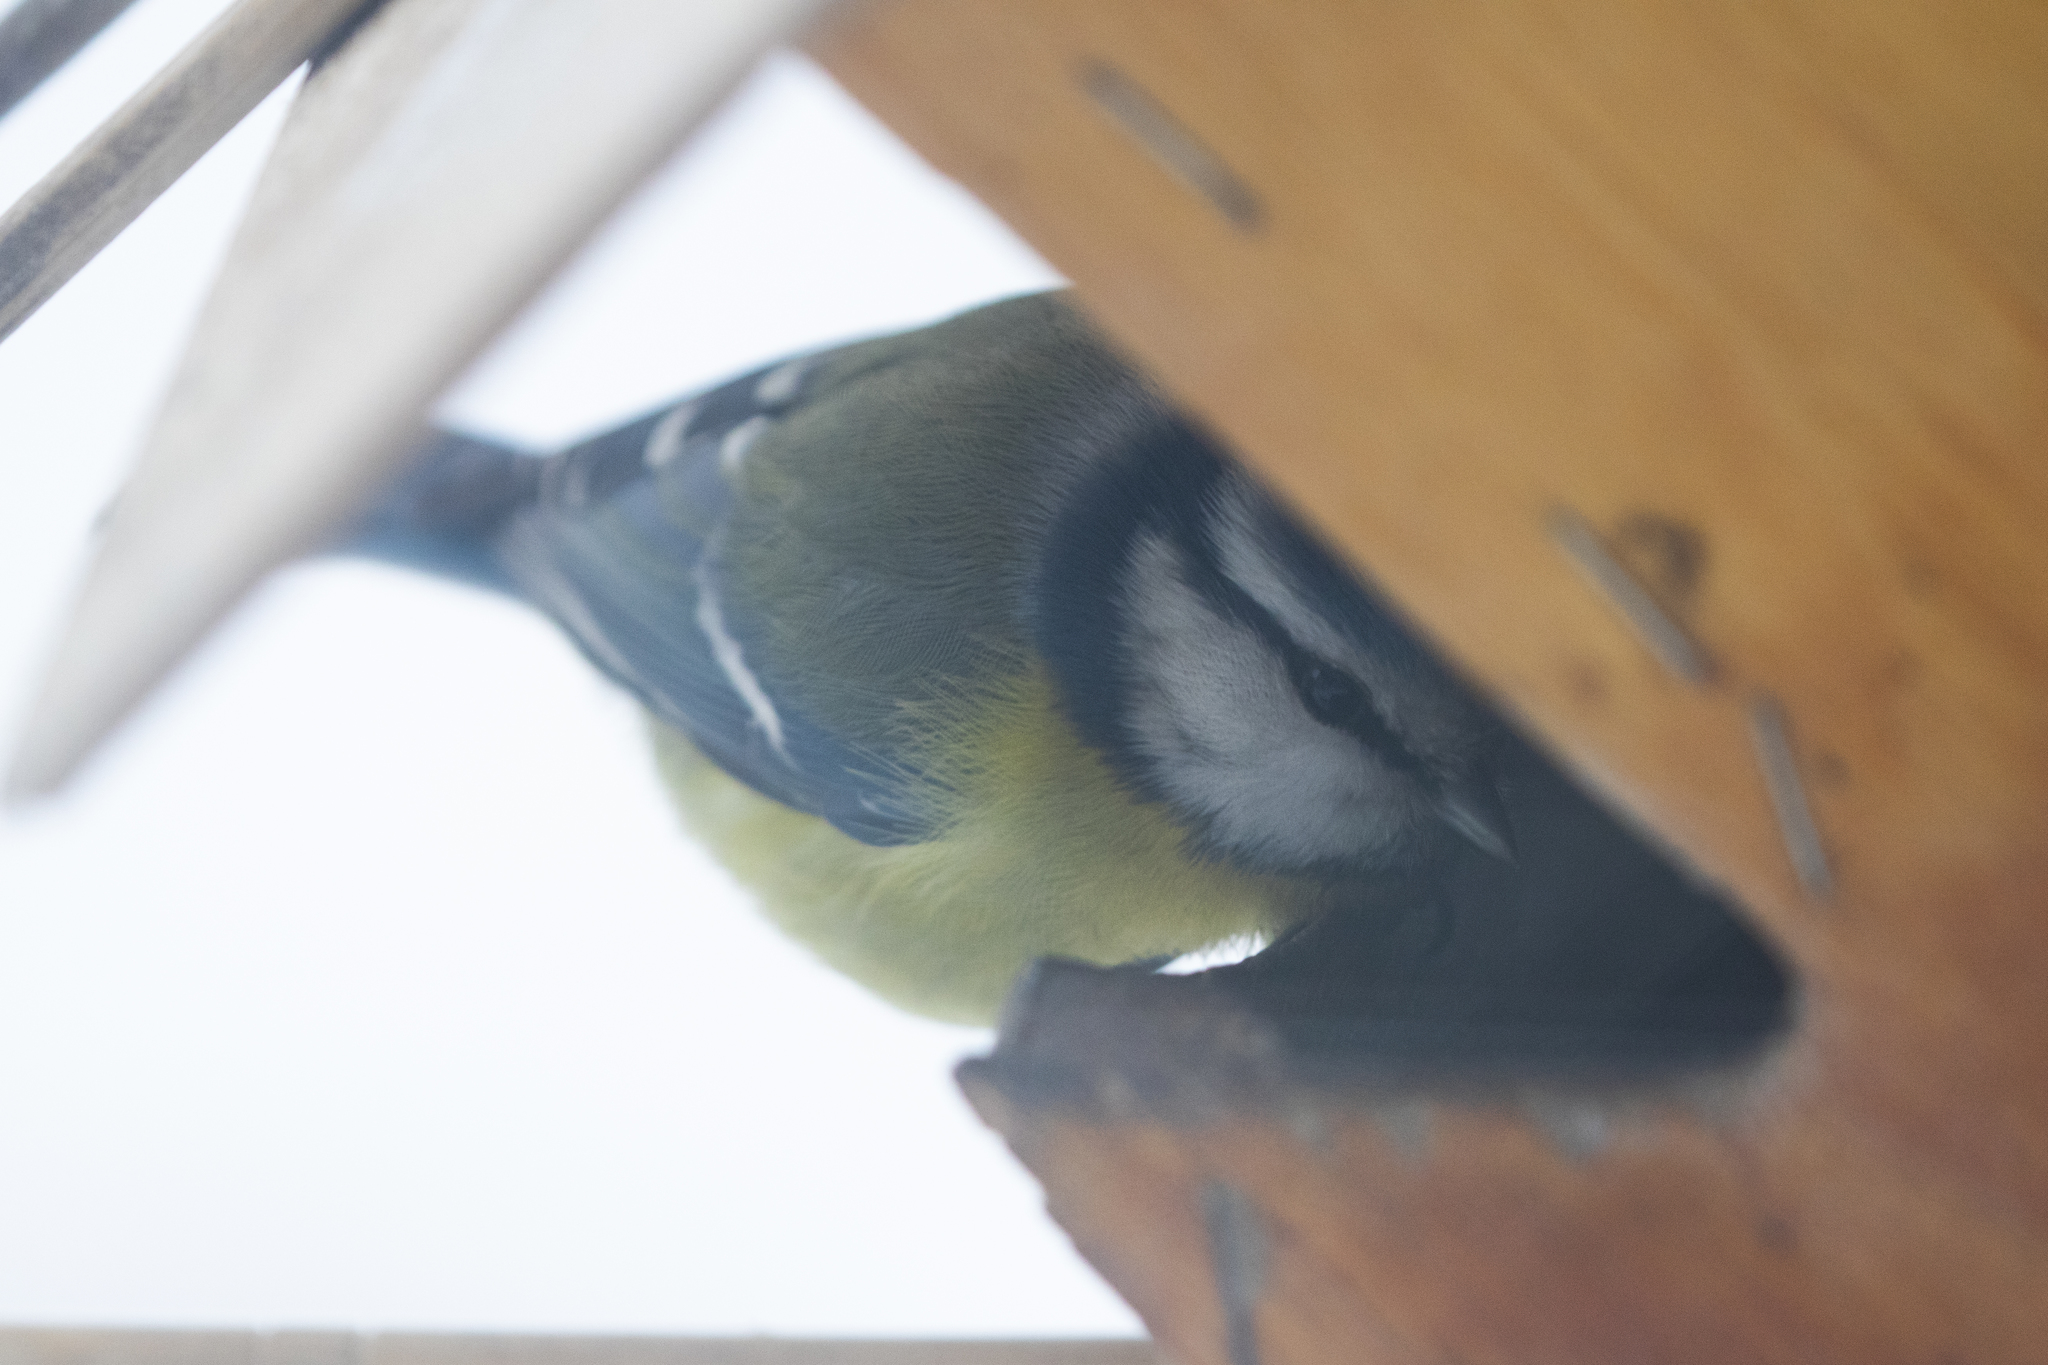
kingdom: Animalia
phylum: Chordata
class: Aves
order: Passeriformes
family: Paridae
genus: Cyanistes
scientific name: Cyanistes caeruleus
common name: Eurasian blue tit
